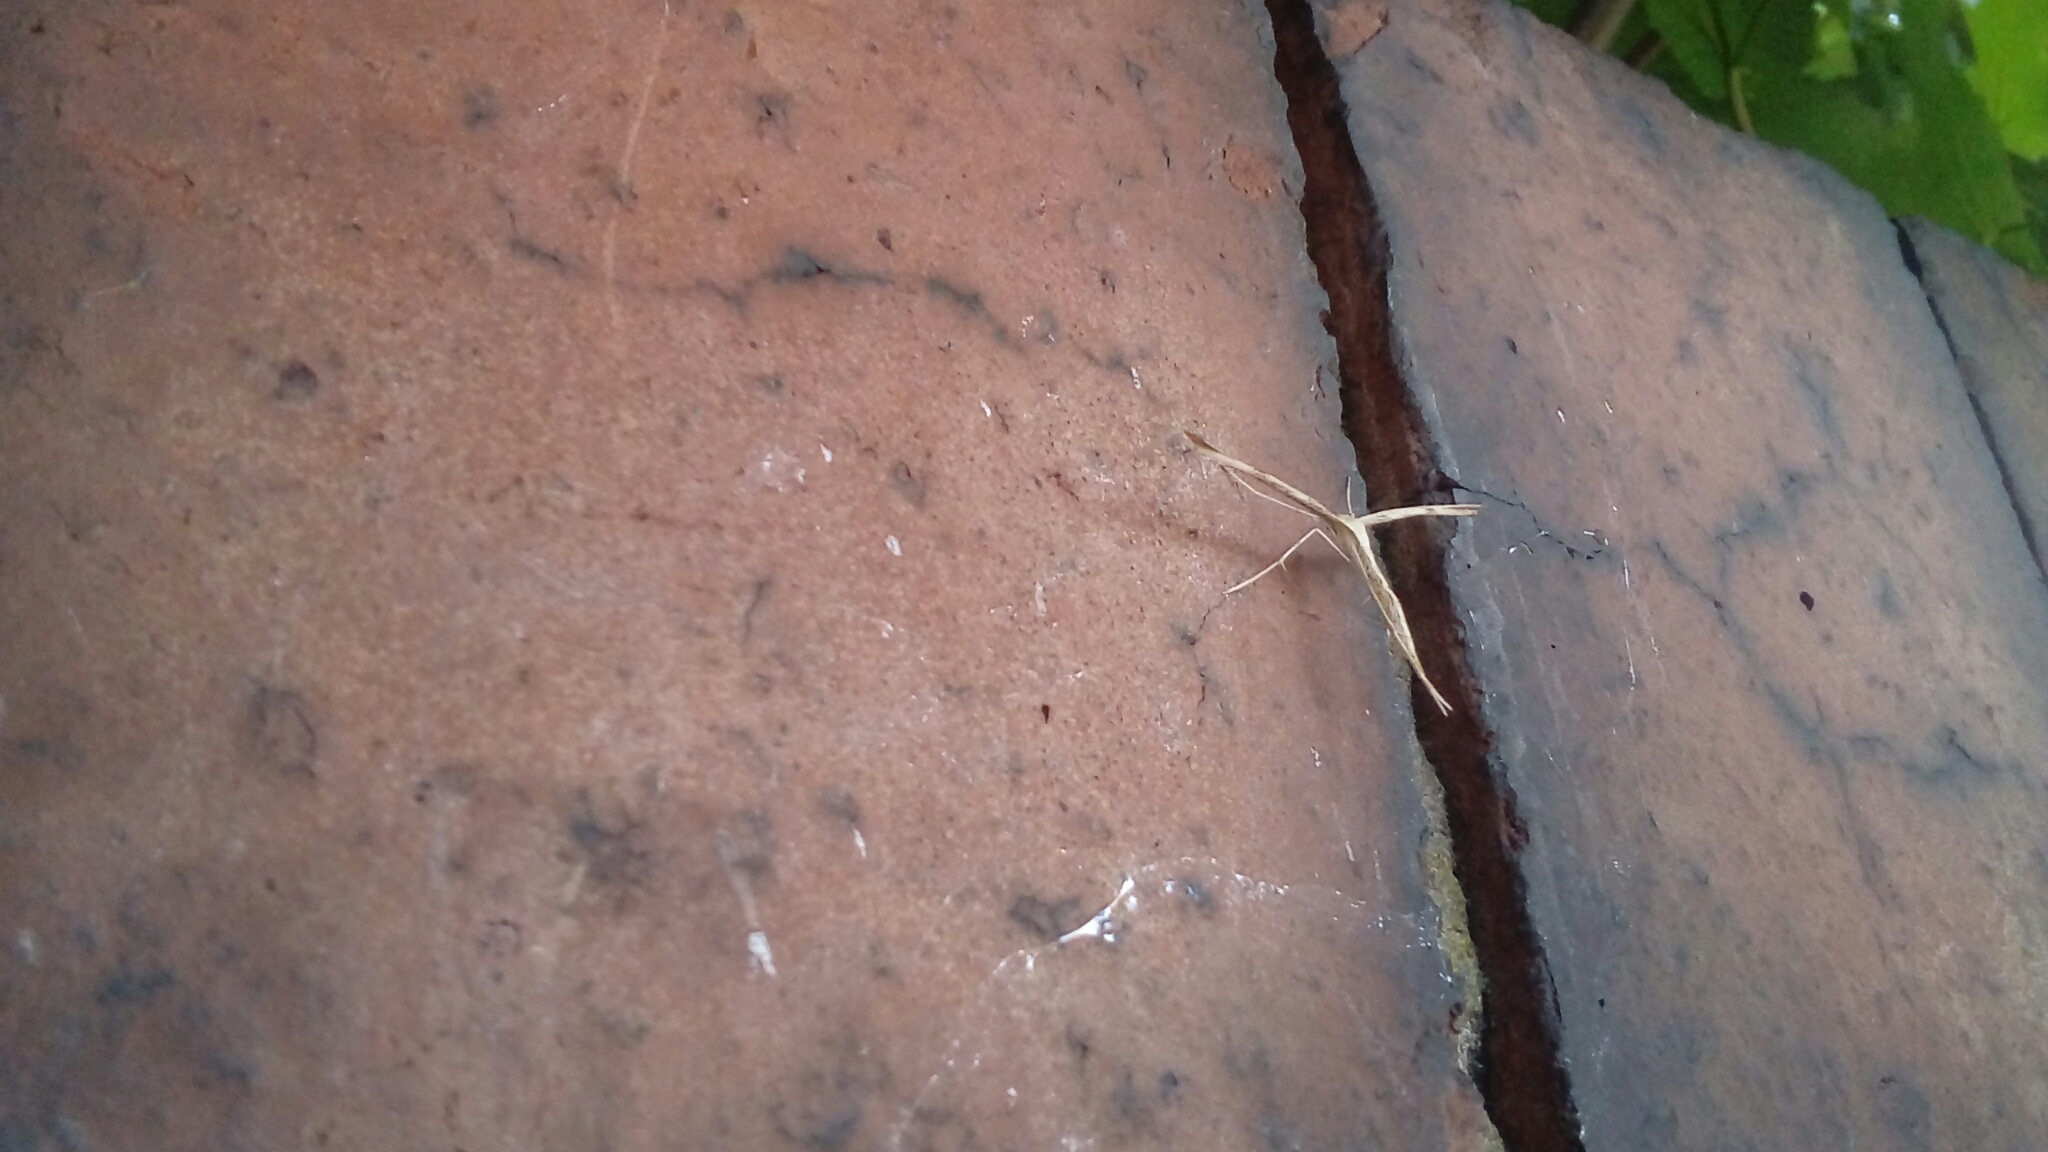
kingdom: Animalia
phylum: Arthropoda
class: Insecta
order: Lepidoptera
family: Pterophoridae
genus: Emmelina
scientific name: Emmelina monodactyla
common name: Common plume
